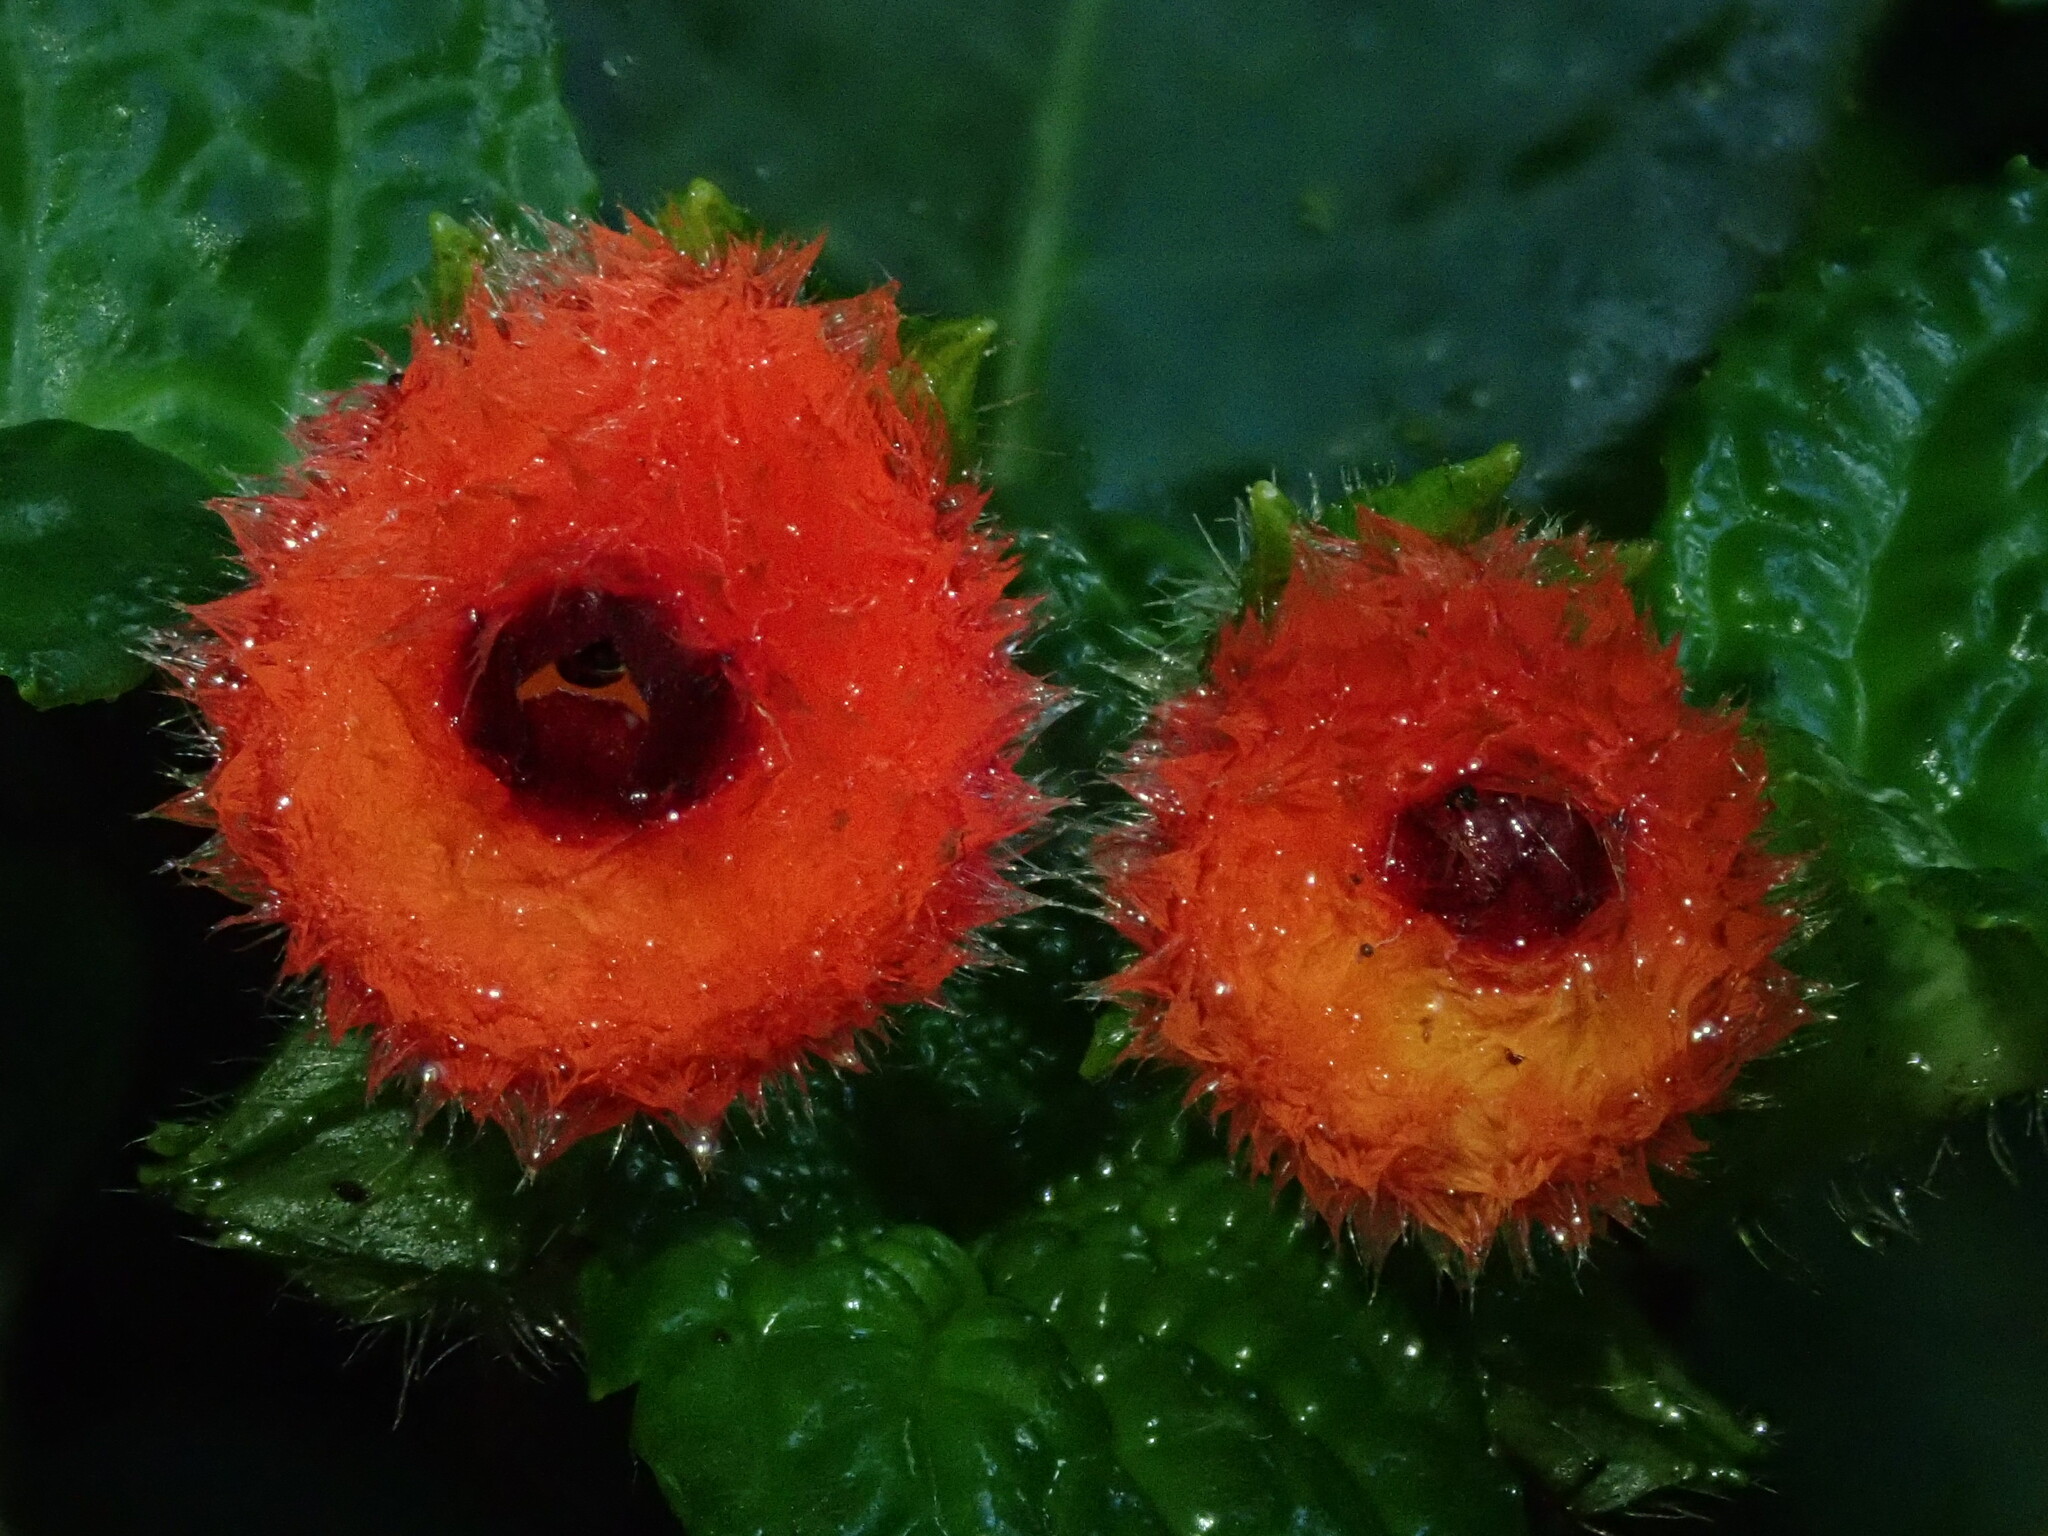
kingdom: Plantae
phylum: Tracheophyta
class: Magnoliopsida
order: Lamiales
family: Gesneriaceae
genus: Pearcea
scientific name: Pearcea schimpfii
